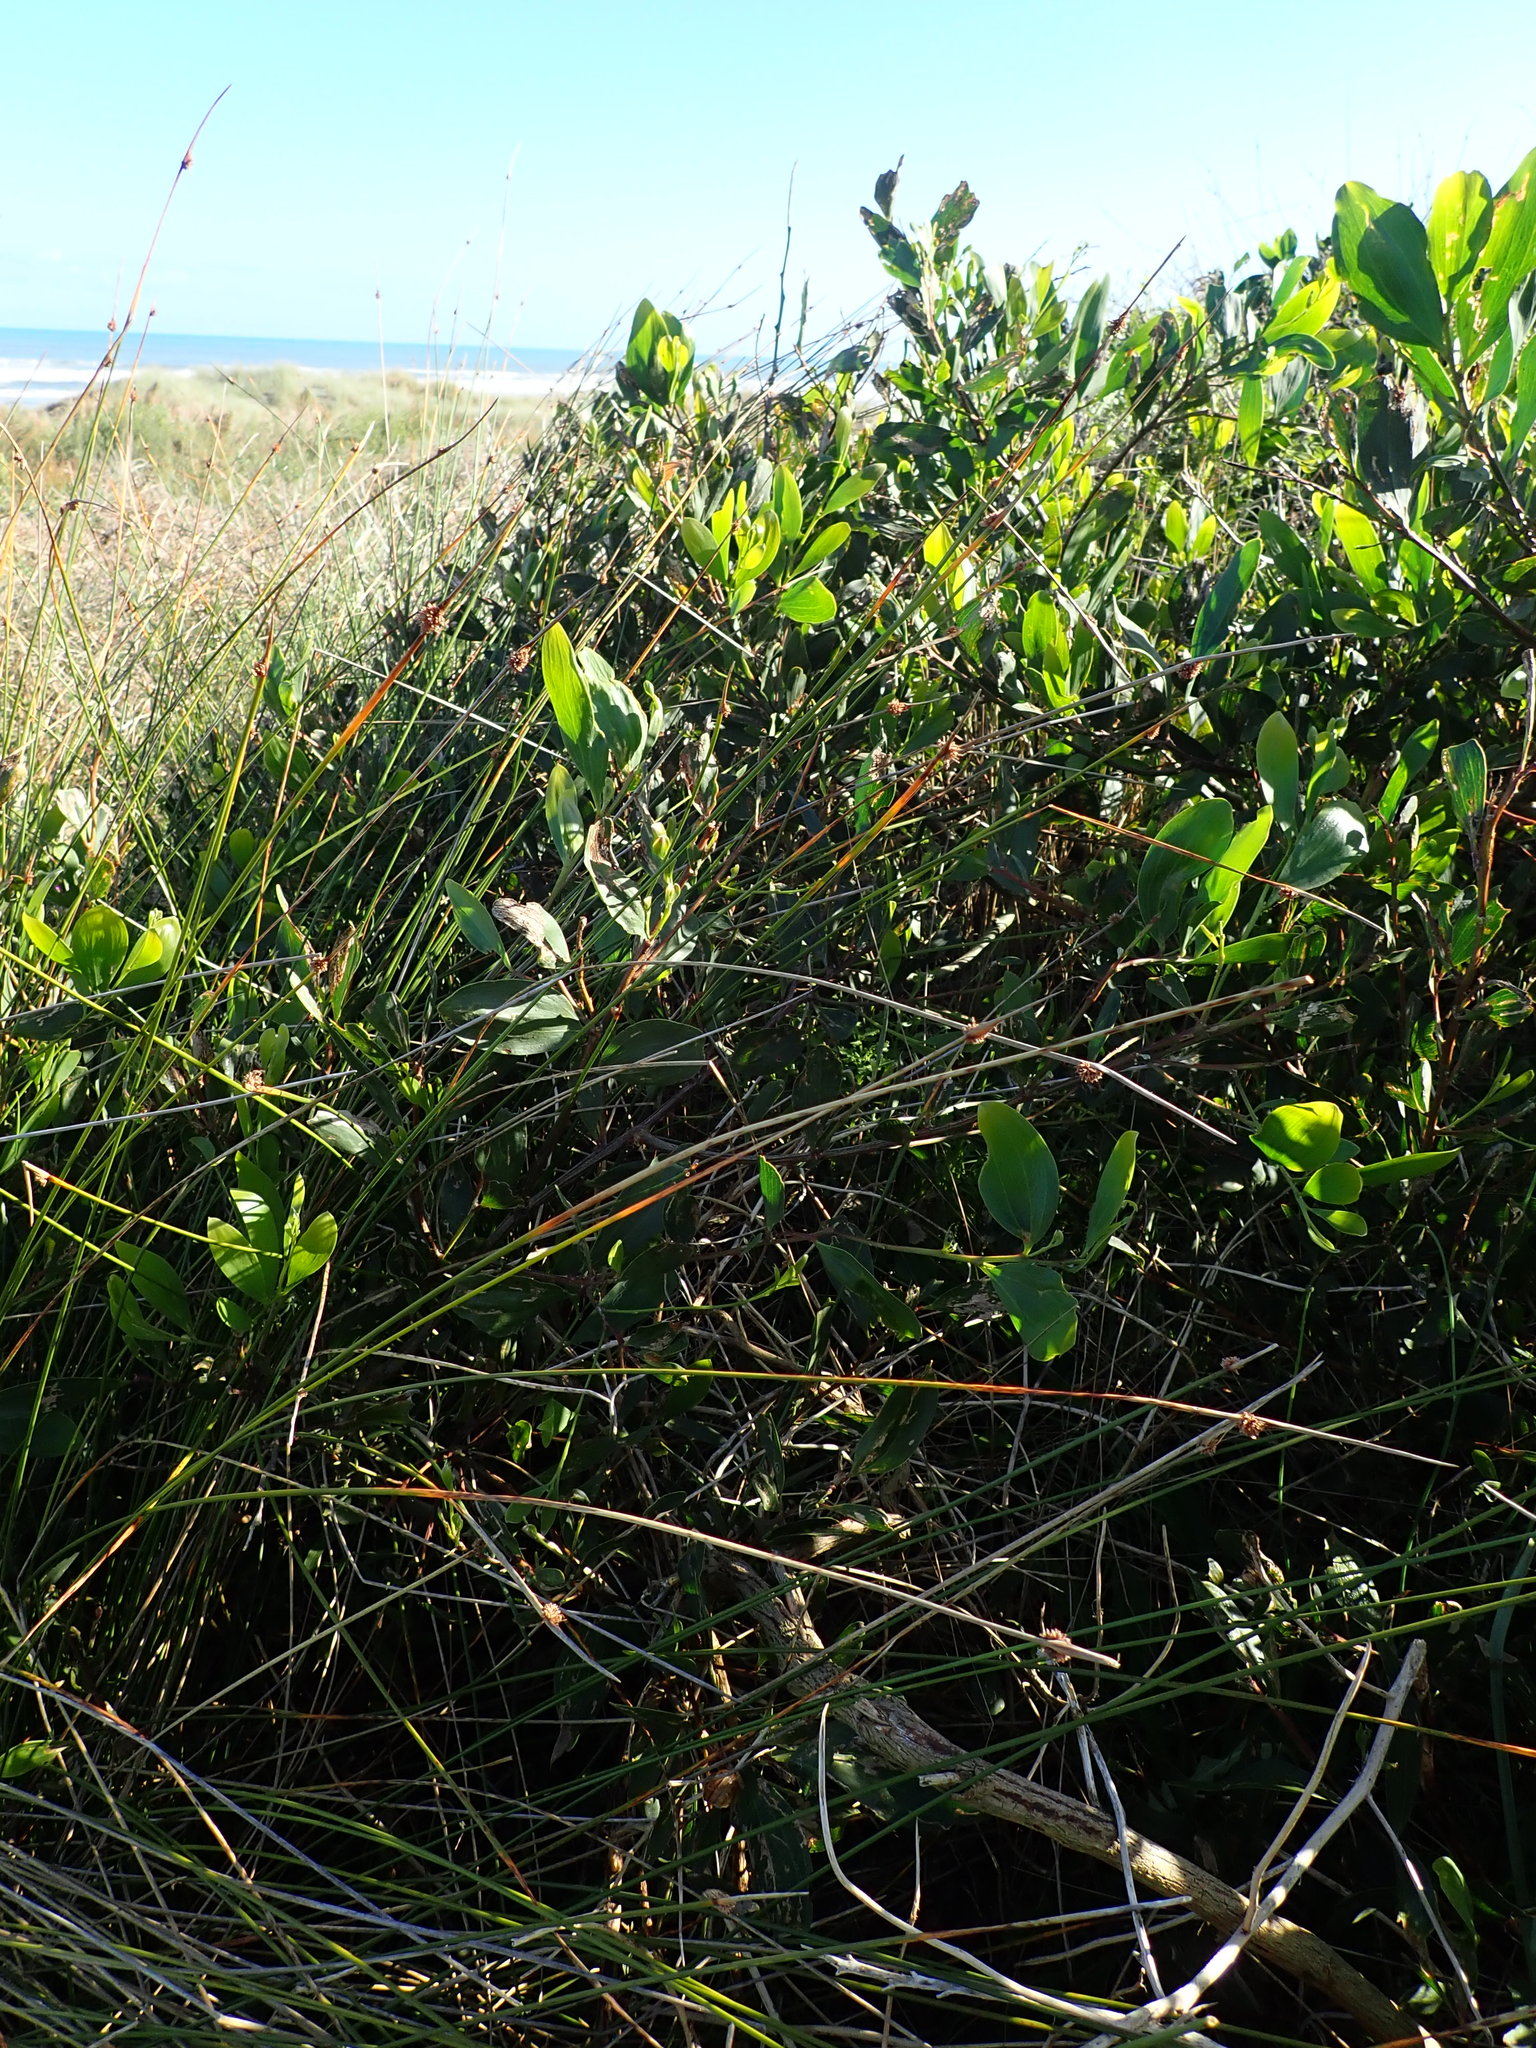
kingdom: Plantae
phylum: Tracheophyta
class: Magnoliopsida
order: Fabales
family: Fabaceae
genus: Acacia
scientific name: Acacia longifolia
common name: Sydney golden wattle
